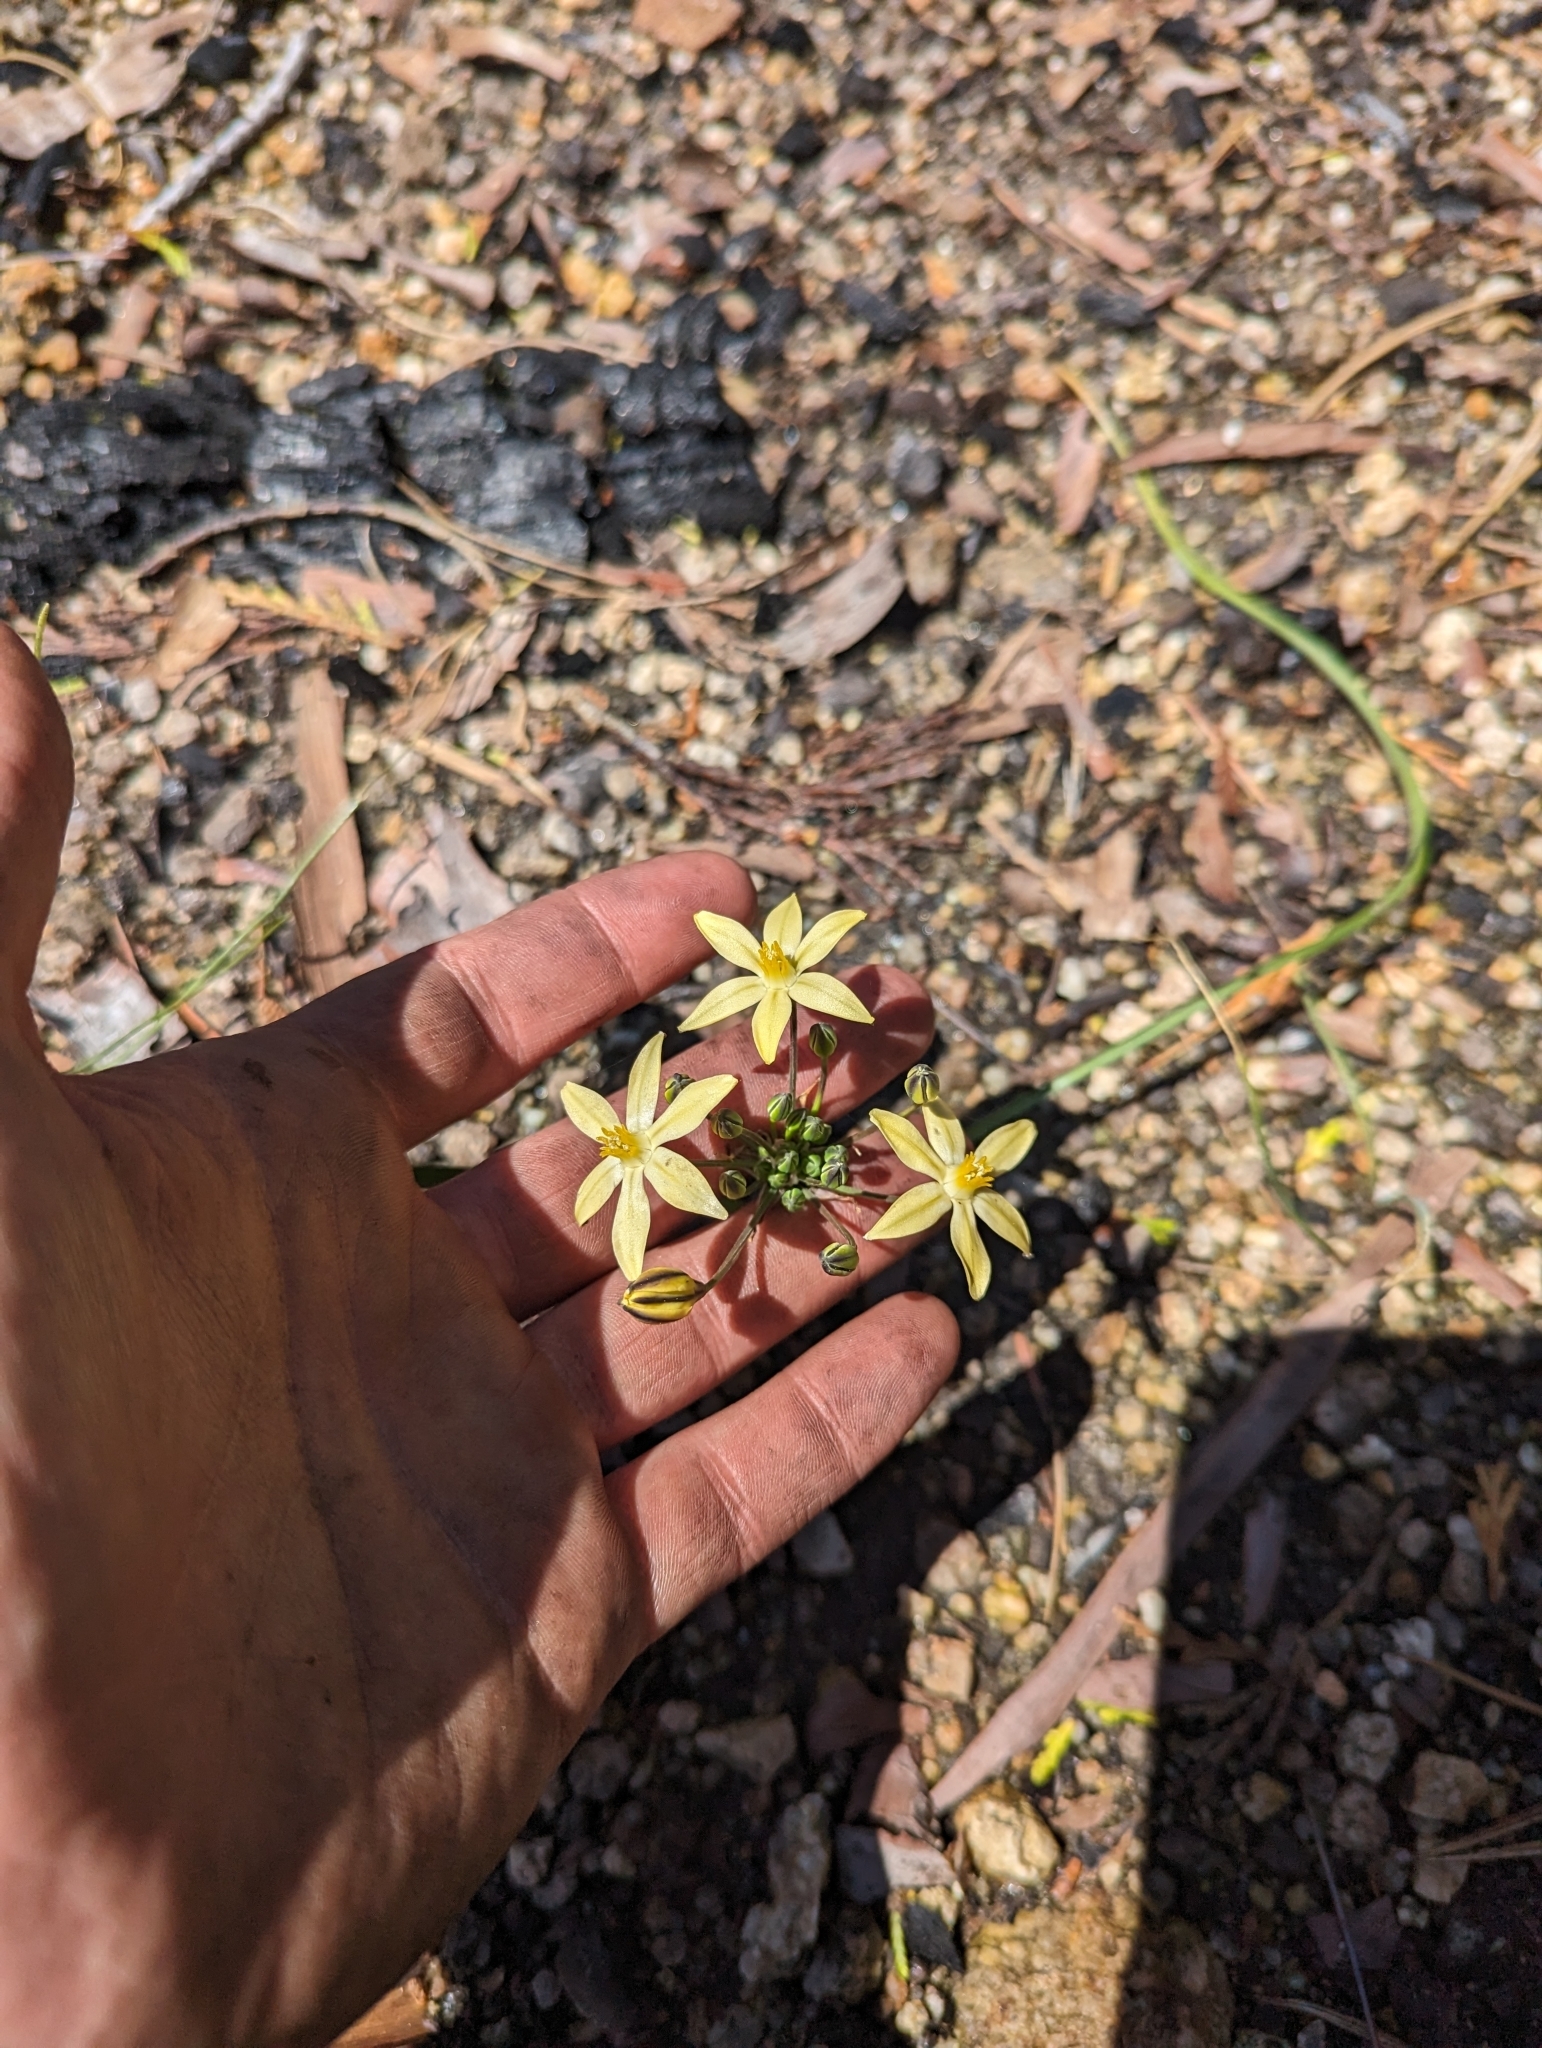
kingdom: Plantae
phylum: Tracheophyta
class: Liliopsida
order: Asparagales
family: Asparagaceae
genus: Triteleia
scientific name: Triteleia ixioides
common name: Yellow-brodiaea
